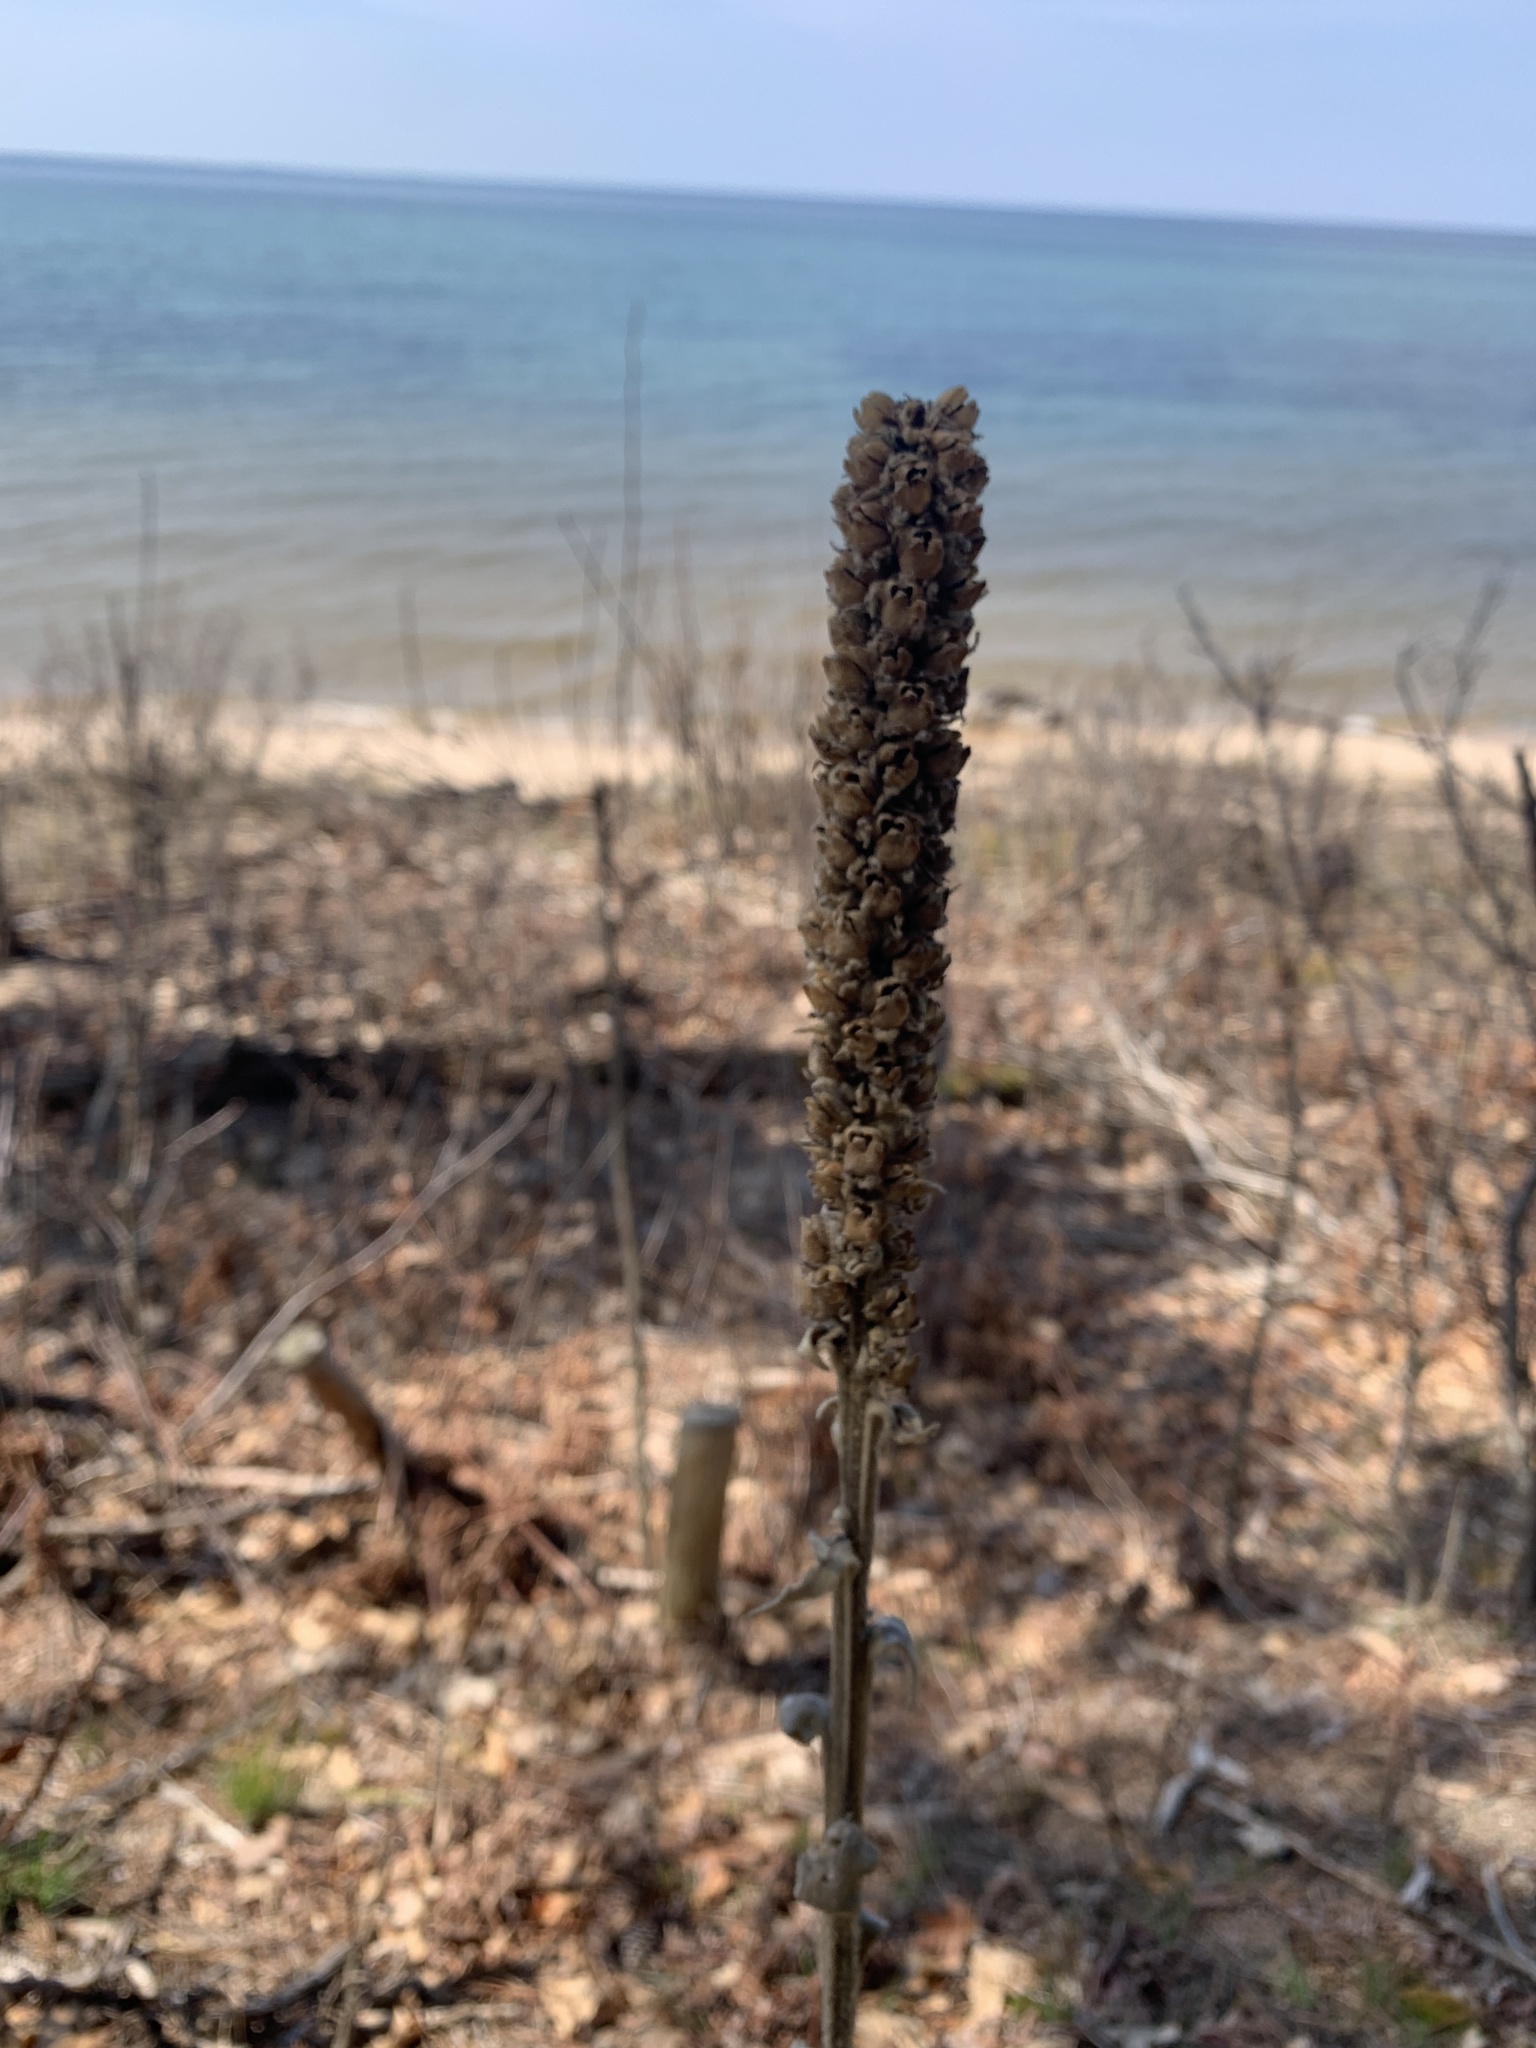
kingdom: Plantae
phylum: Tracheophyta
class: Magnoliopsida
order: Lamiales
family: Scrophulariaceae
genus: Verbascum
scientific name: Verbascum thapsus
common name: Common mullein
